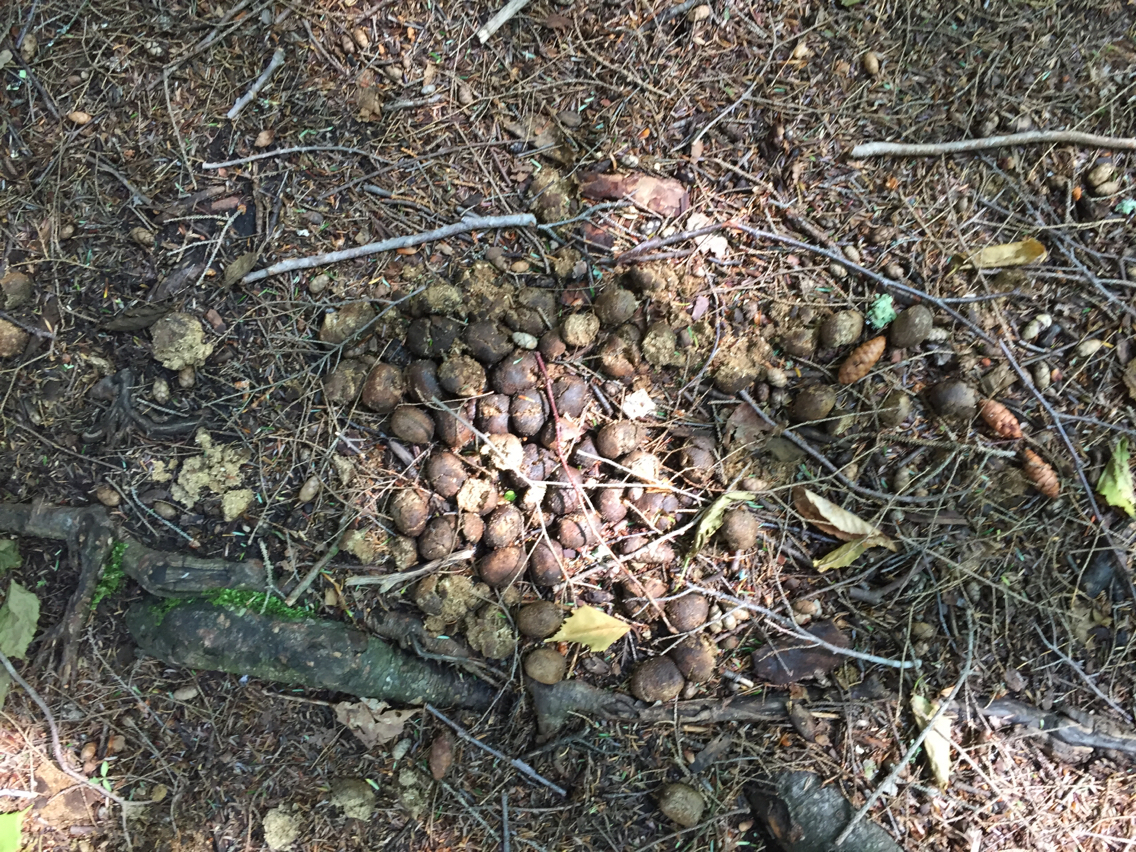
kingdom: Animalia
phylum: Chordata
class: Mammalia
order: Artiodactyla
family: Cervidae
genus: Alces
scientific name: Alces alces
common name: Moose
